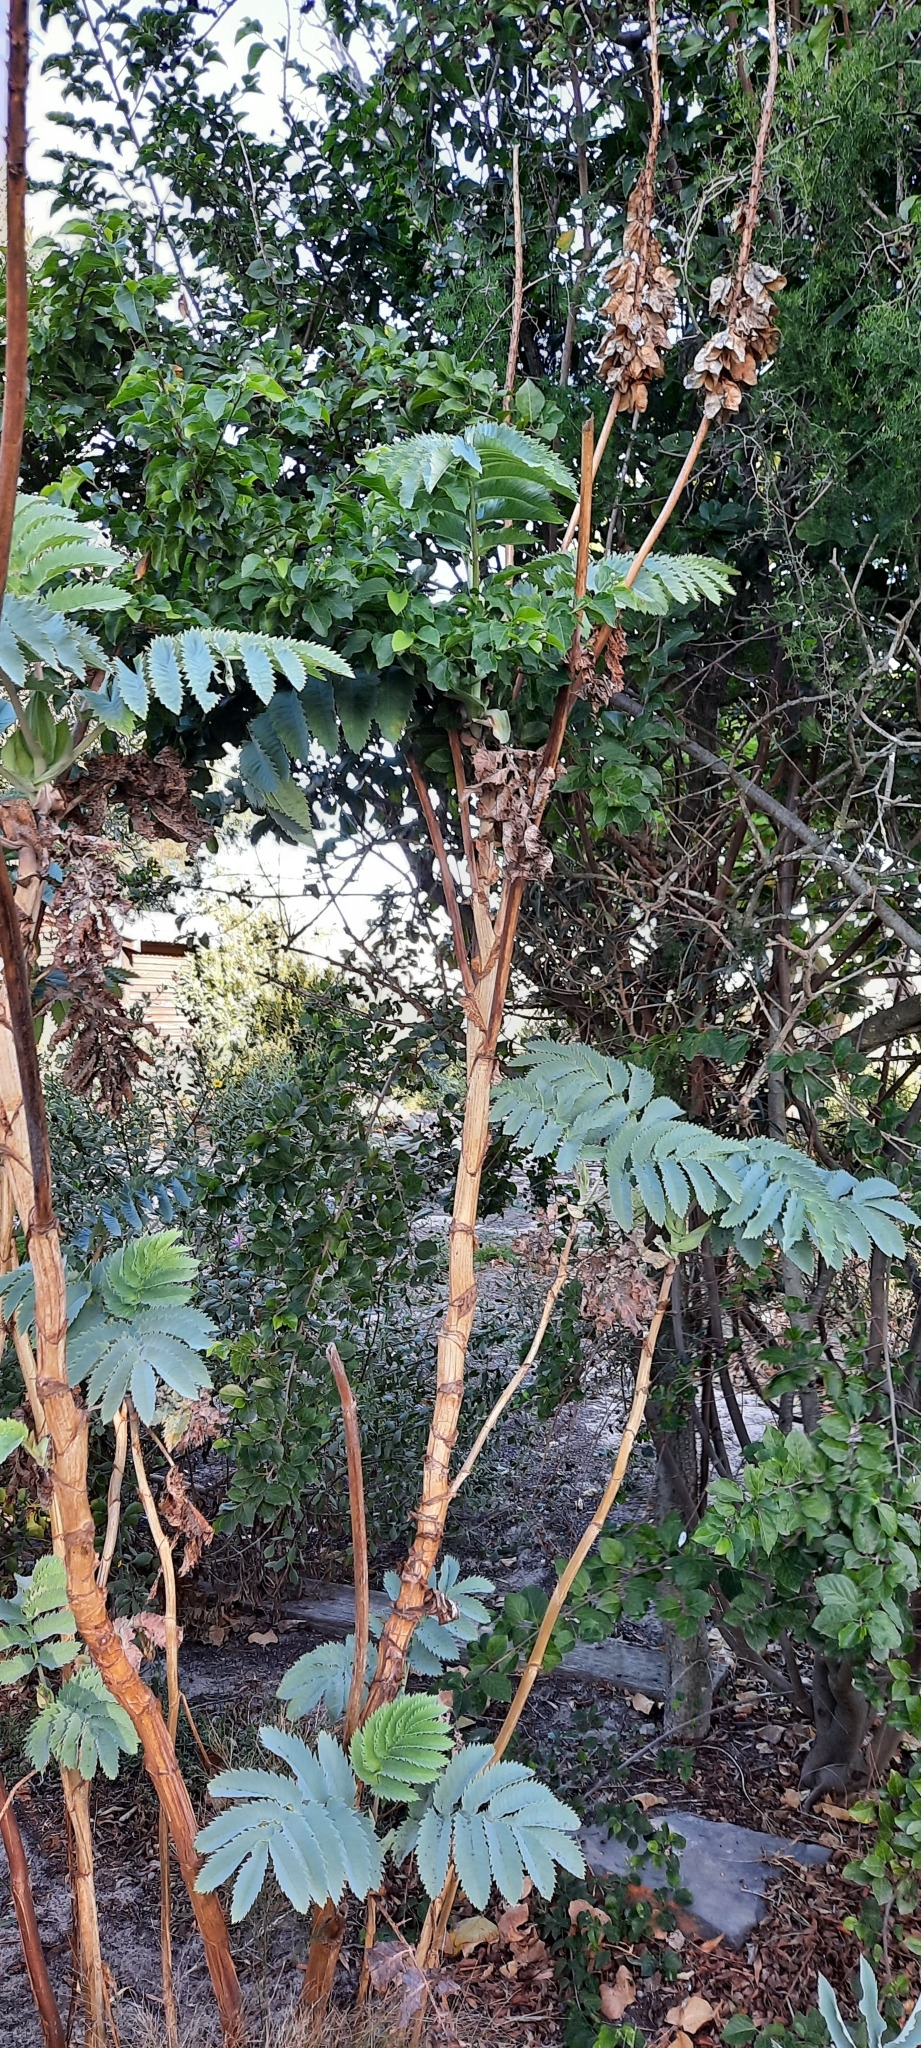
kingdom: Plantae
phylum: Tracheophyta
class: Magnoliopsida
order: Geraniales
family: Melianthaceae
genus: Melianthus
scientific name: Melianthus major
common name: Honey-flower
